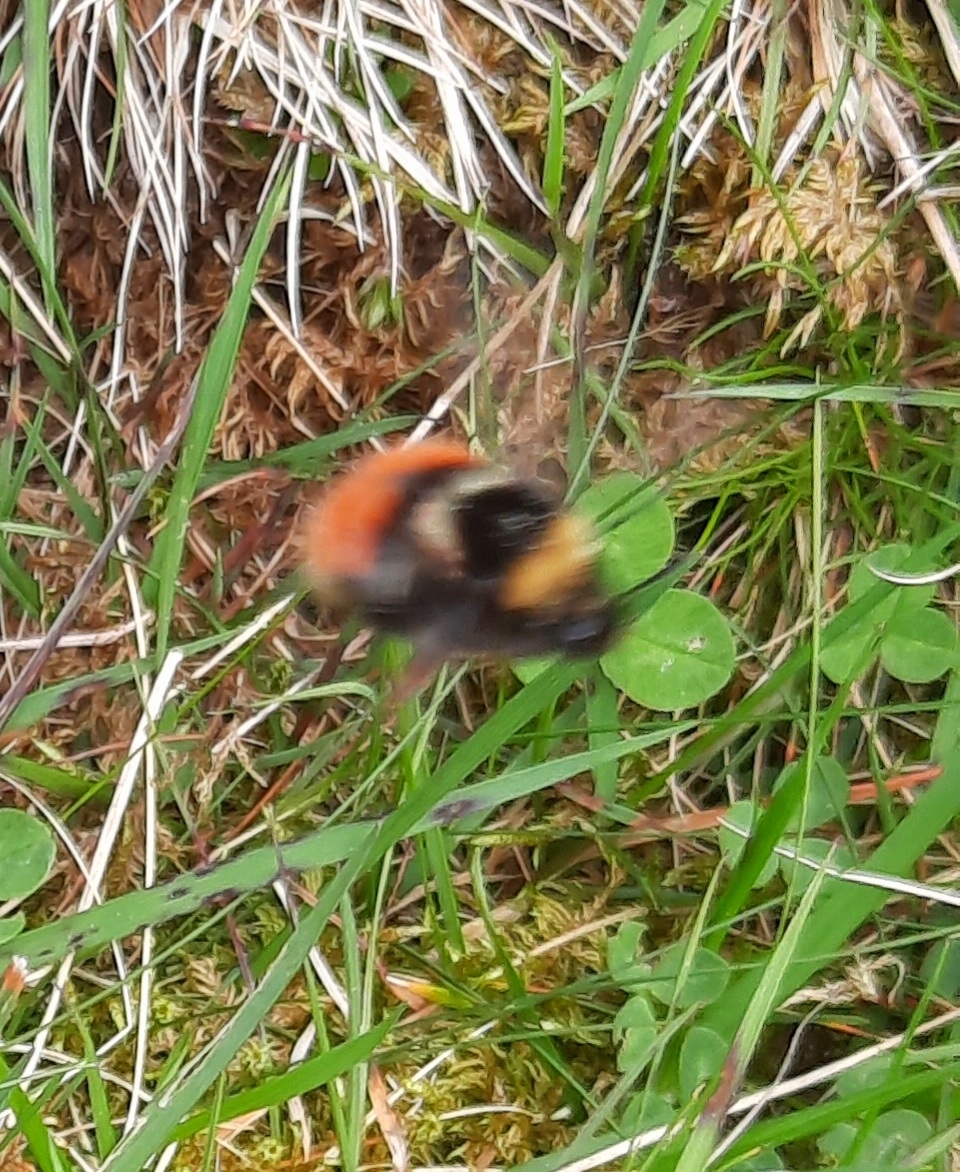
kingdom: Animalia
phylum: Arthropoda
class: Insecta
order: Hymenoptera
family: Apidae
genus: Bombus
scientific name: Bombus monticola
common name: Bilberry humble-bee
